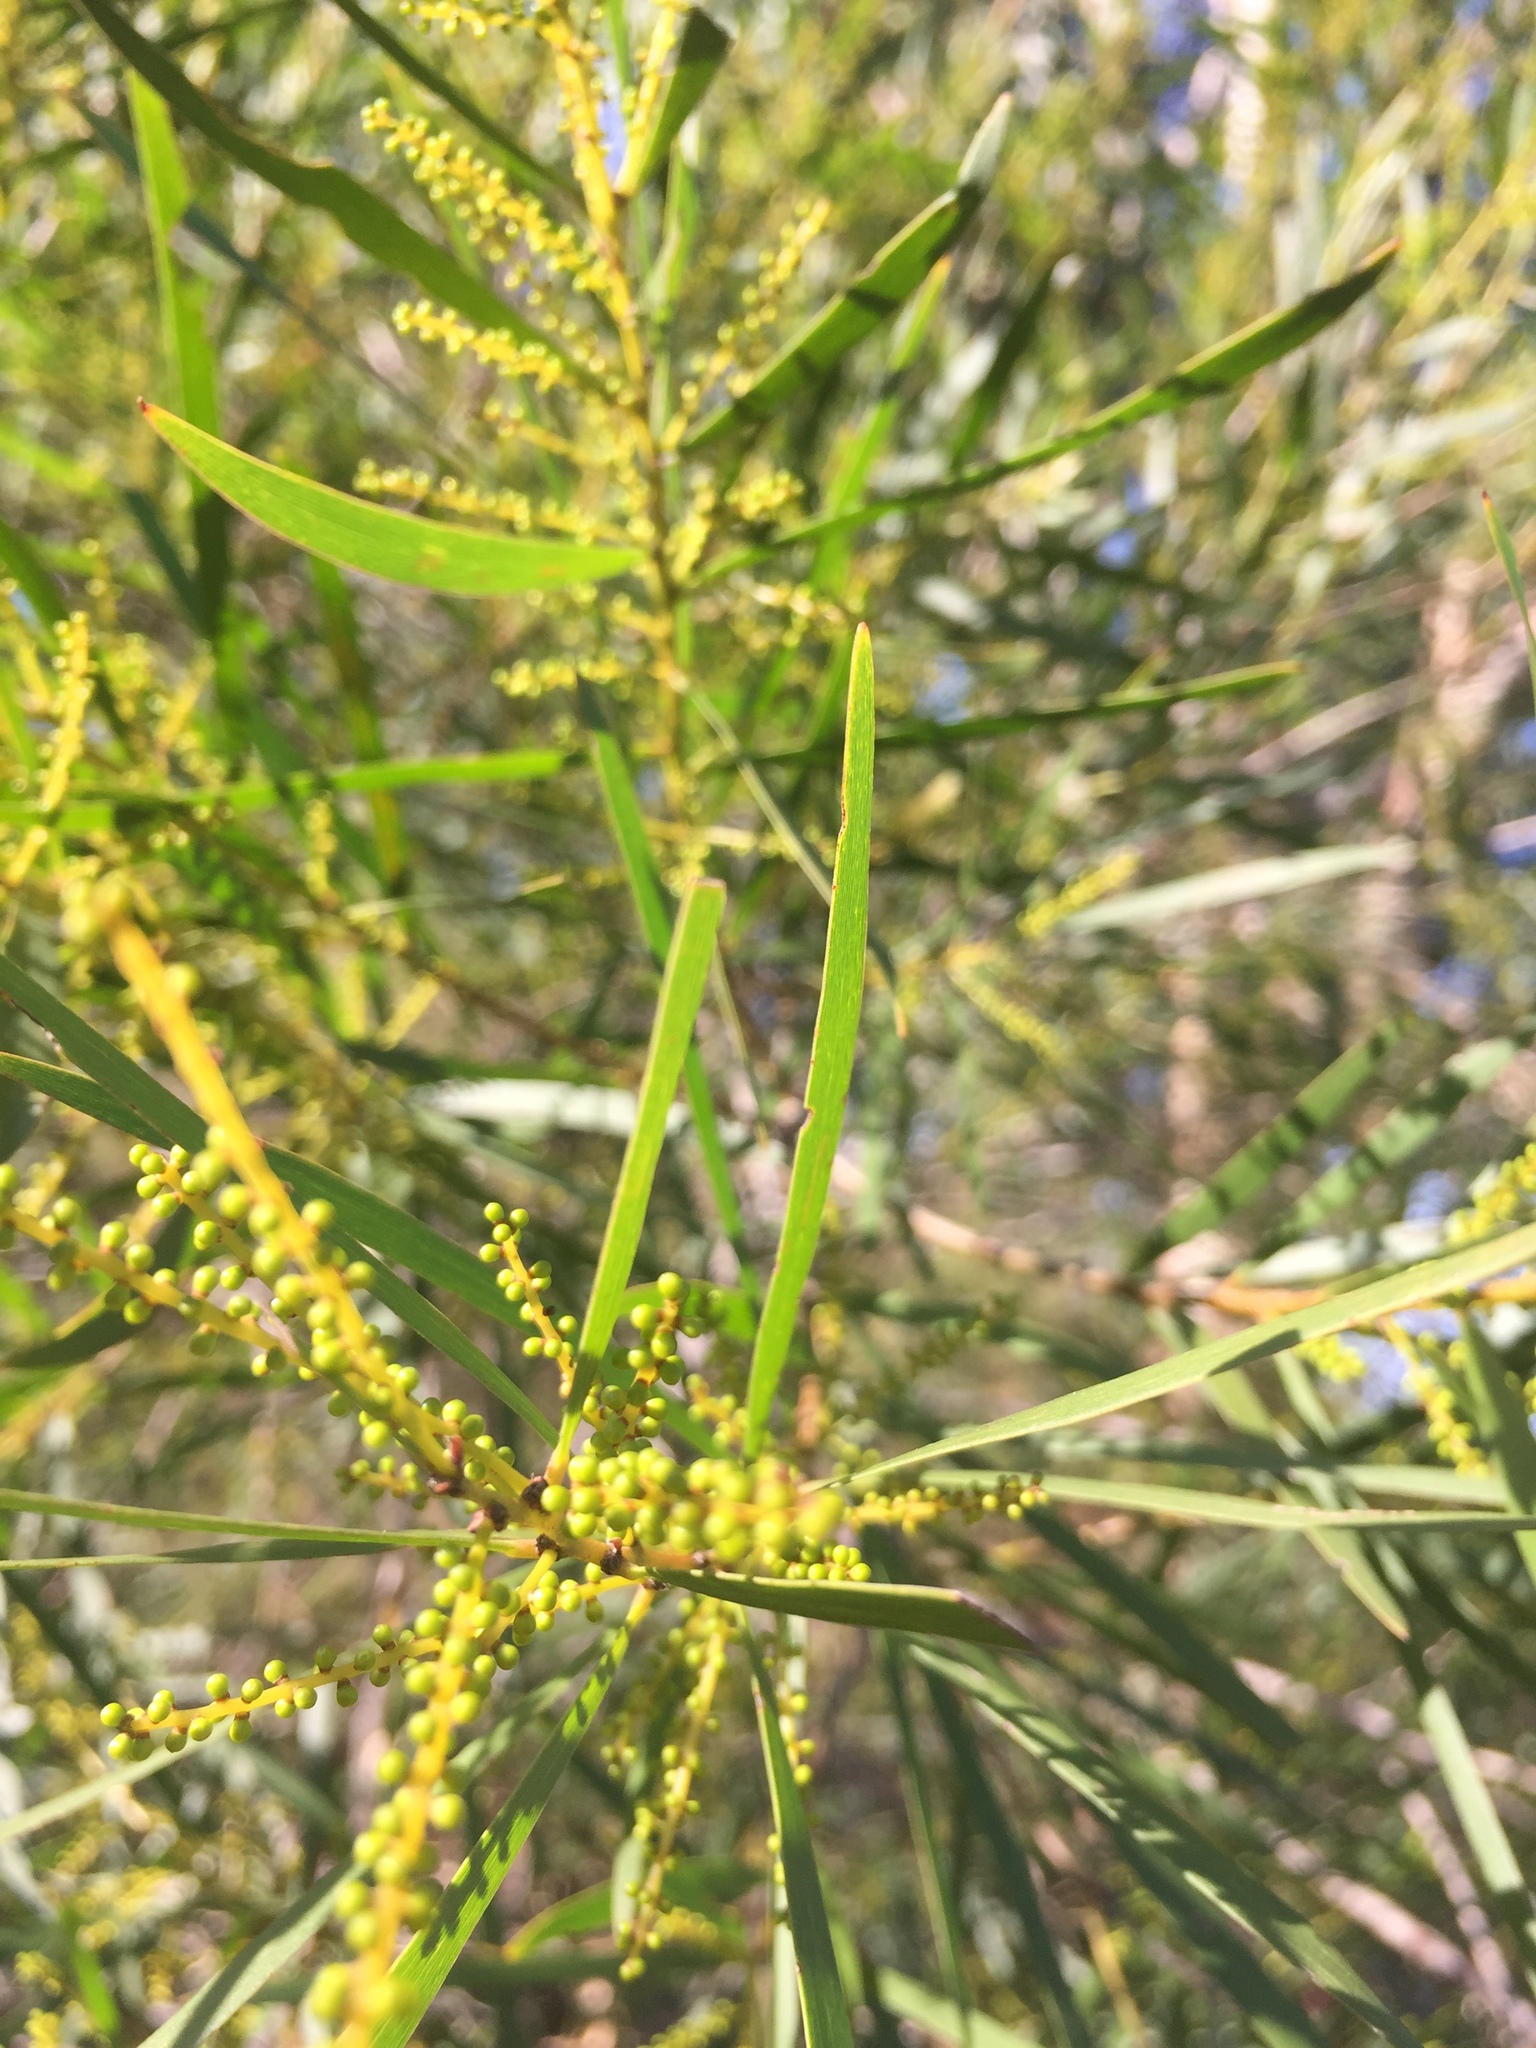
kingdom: Plantae
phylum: Tracheophyta
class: Magnoliopsida
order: Fabales
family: Fabaceae
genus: Acacia
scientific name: Acacia floribunda
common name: Gossamer wattle
